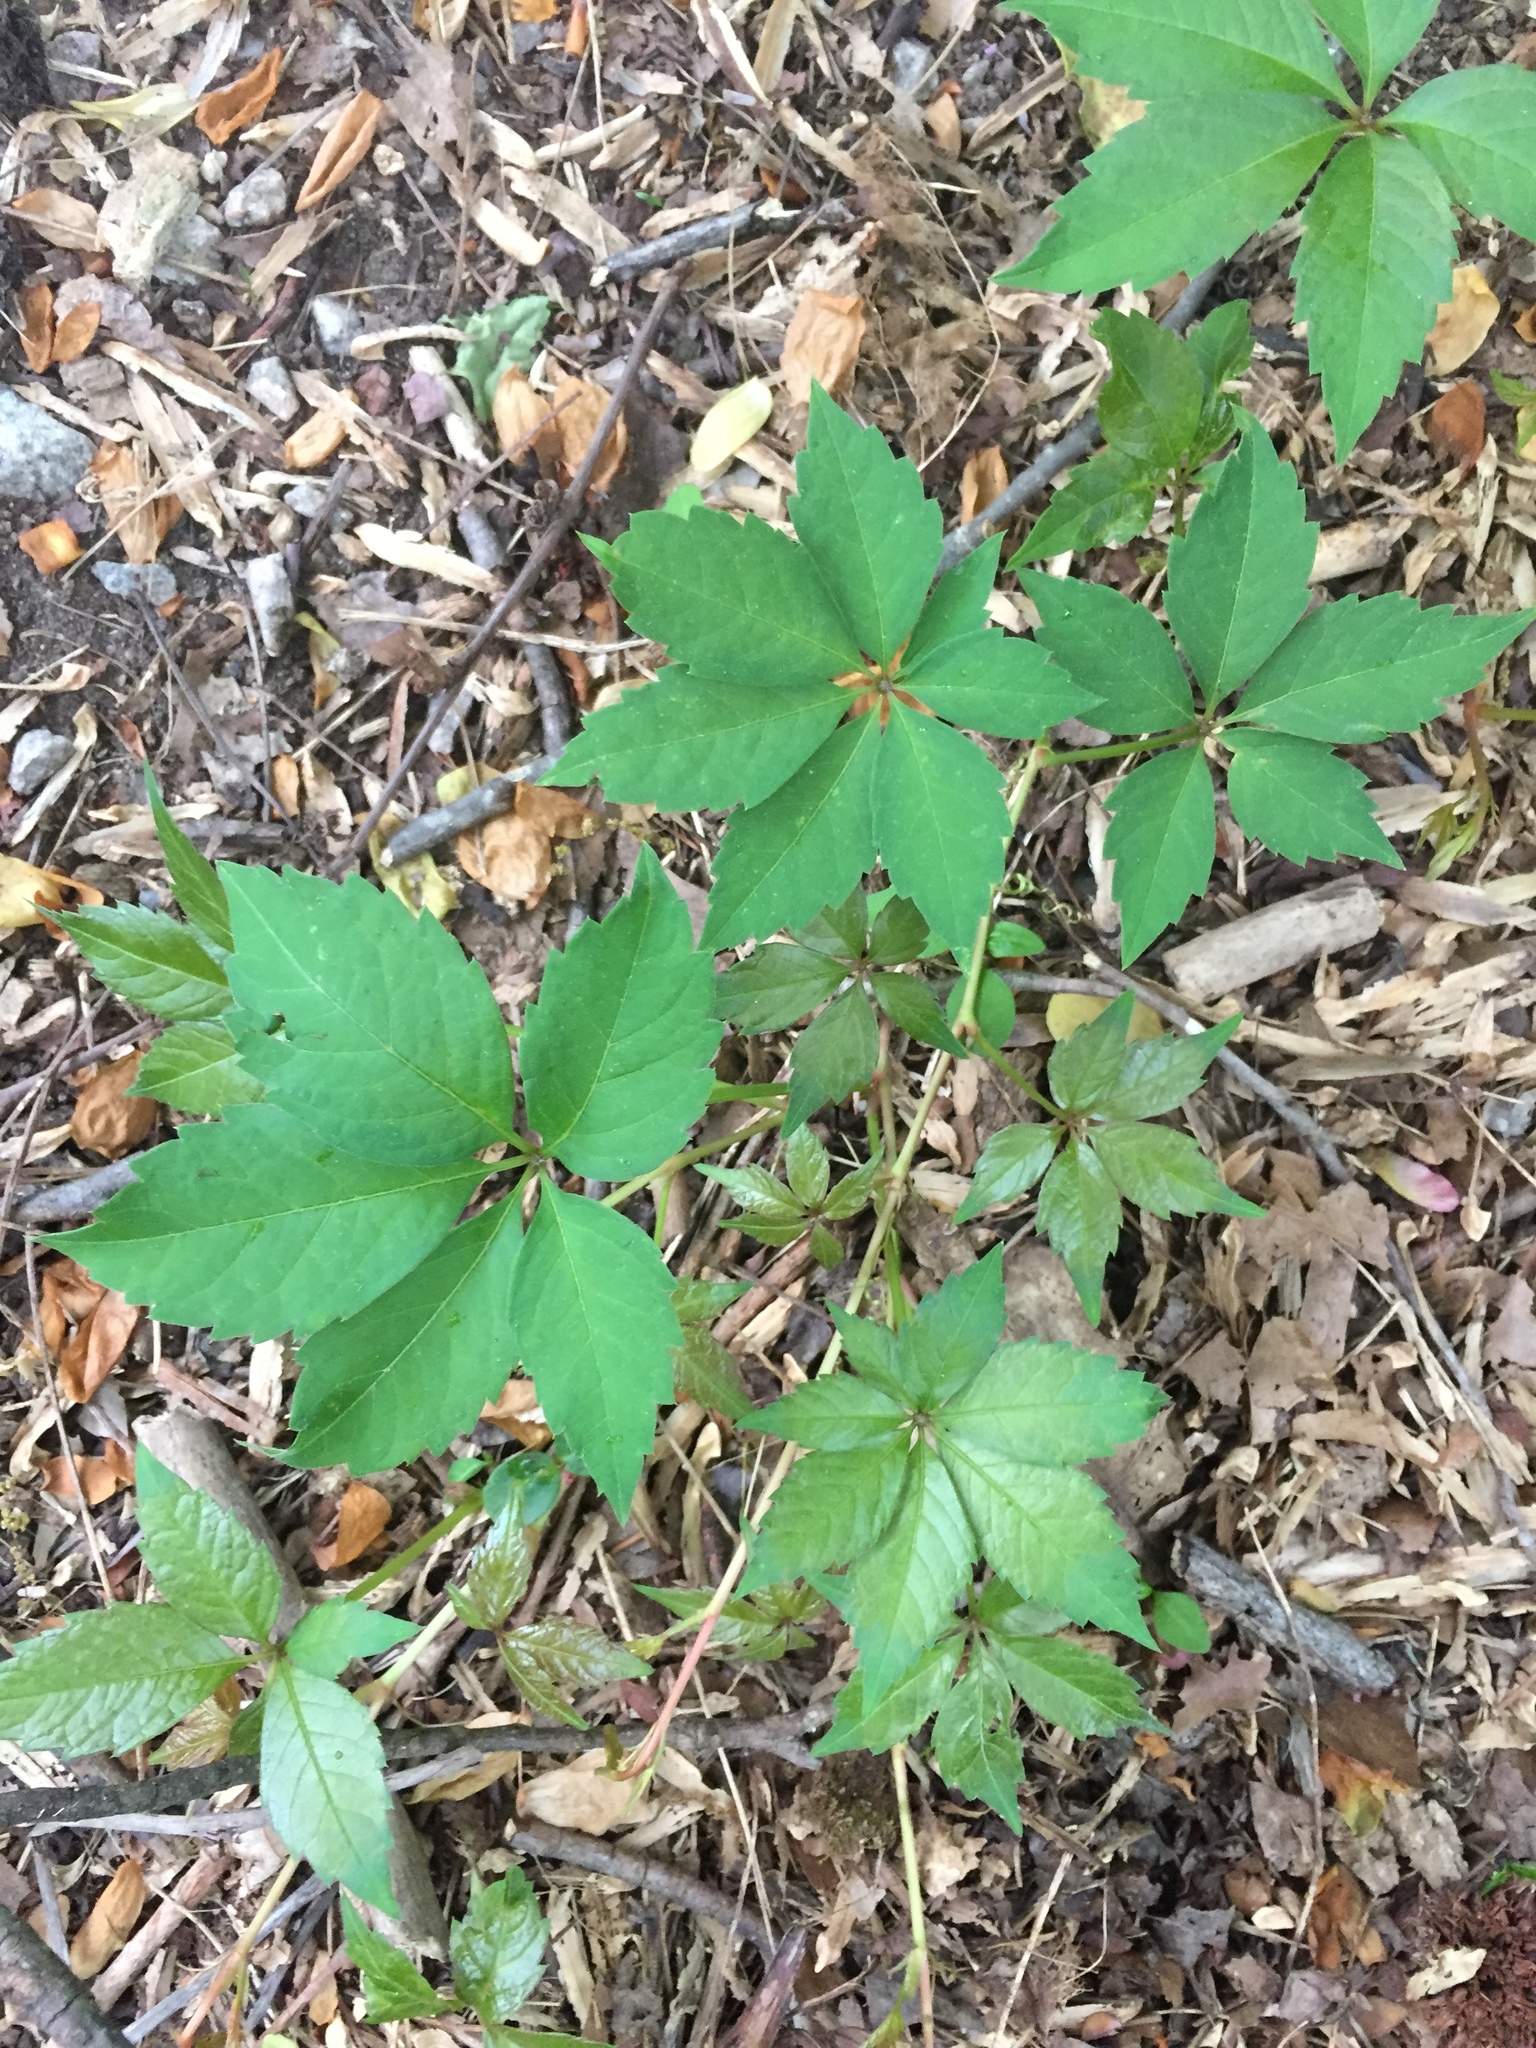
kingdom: Plantae
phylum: Tracheophyta
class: Magnoliopsida
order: Vitales
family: Vitaceae
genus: Parthenocissus
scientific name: Parthenocissus quinquefolia
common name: Virginia-creeper
